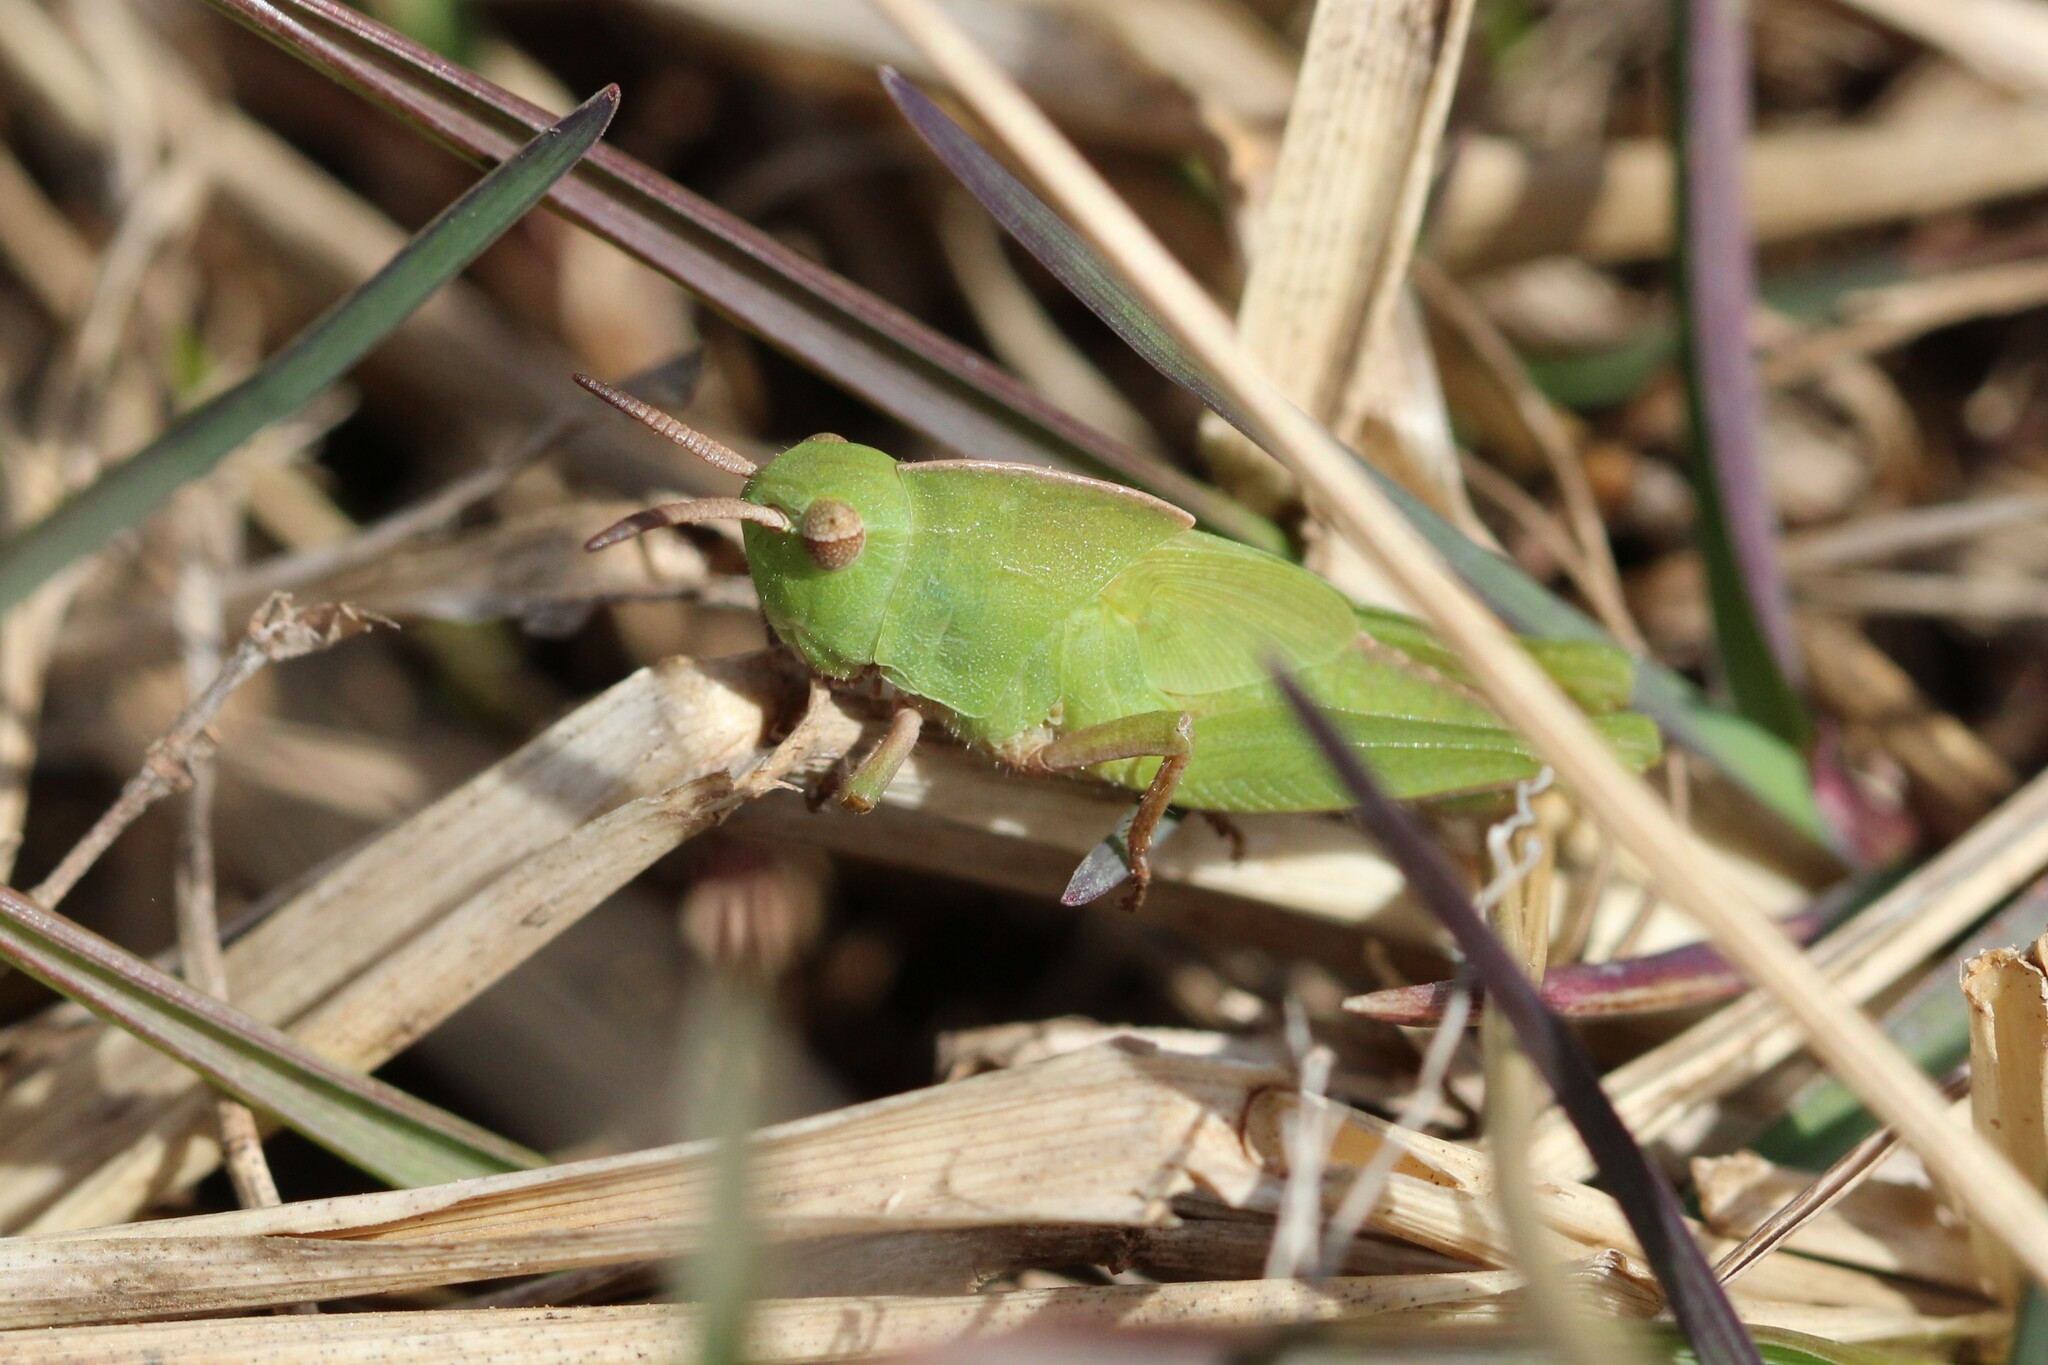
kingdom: Animalia
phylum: Arthropoda
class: Insecta
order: Orthoptera
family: Acrididae
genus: Chortophaga
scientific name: Chortophaga viridifasciata
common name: Green-striped grasshopper
